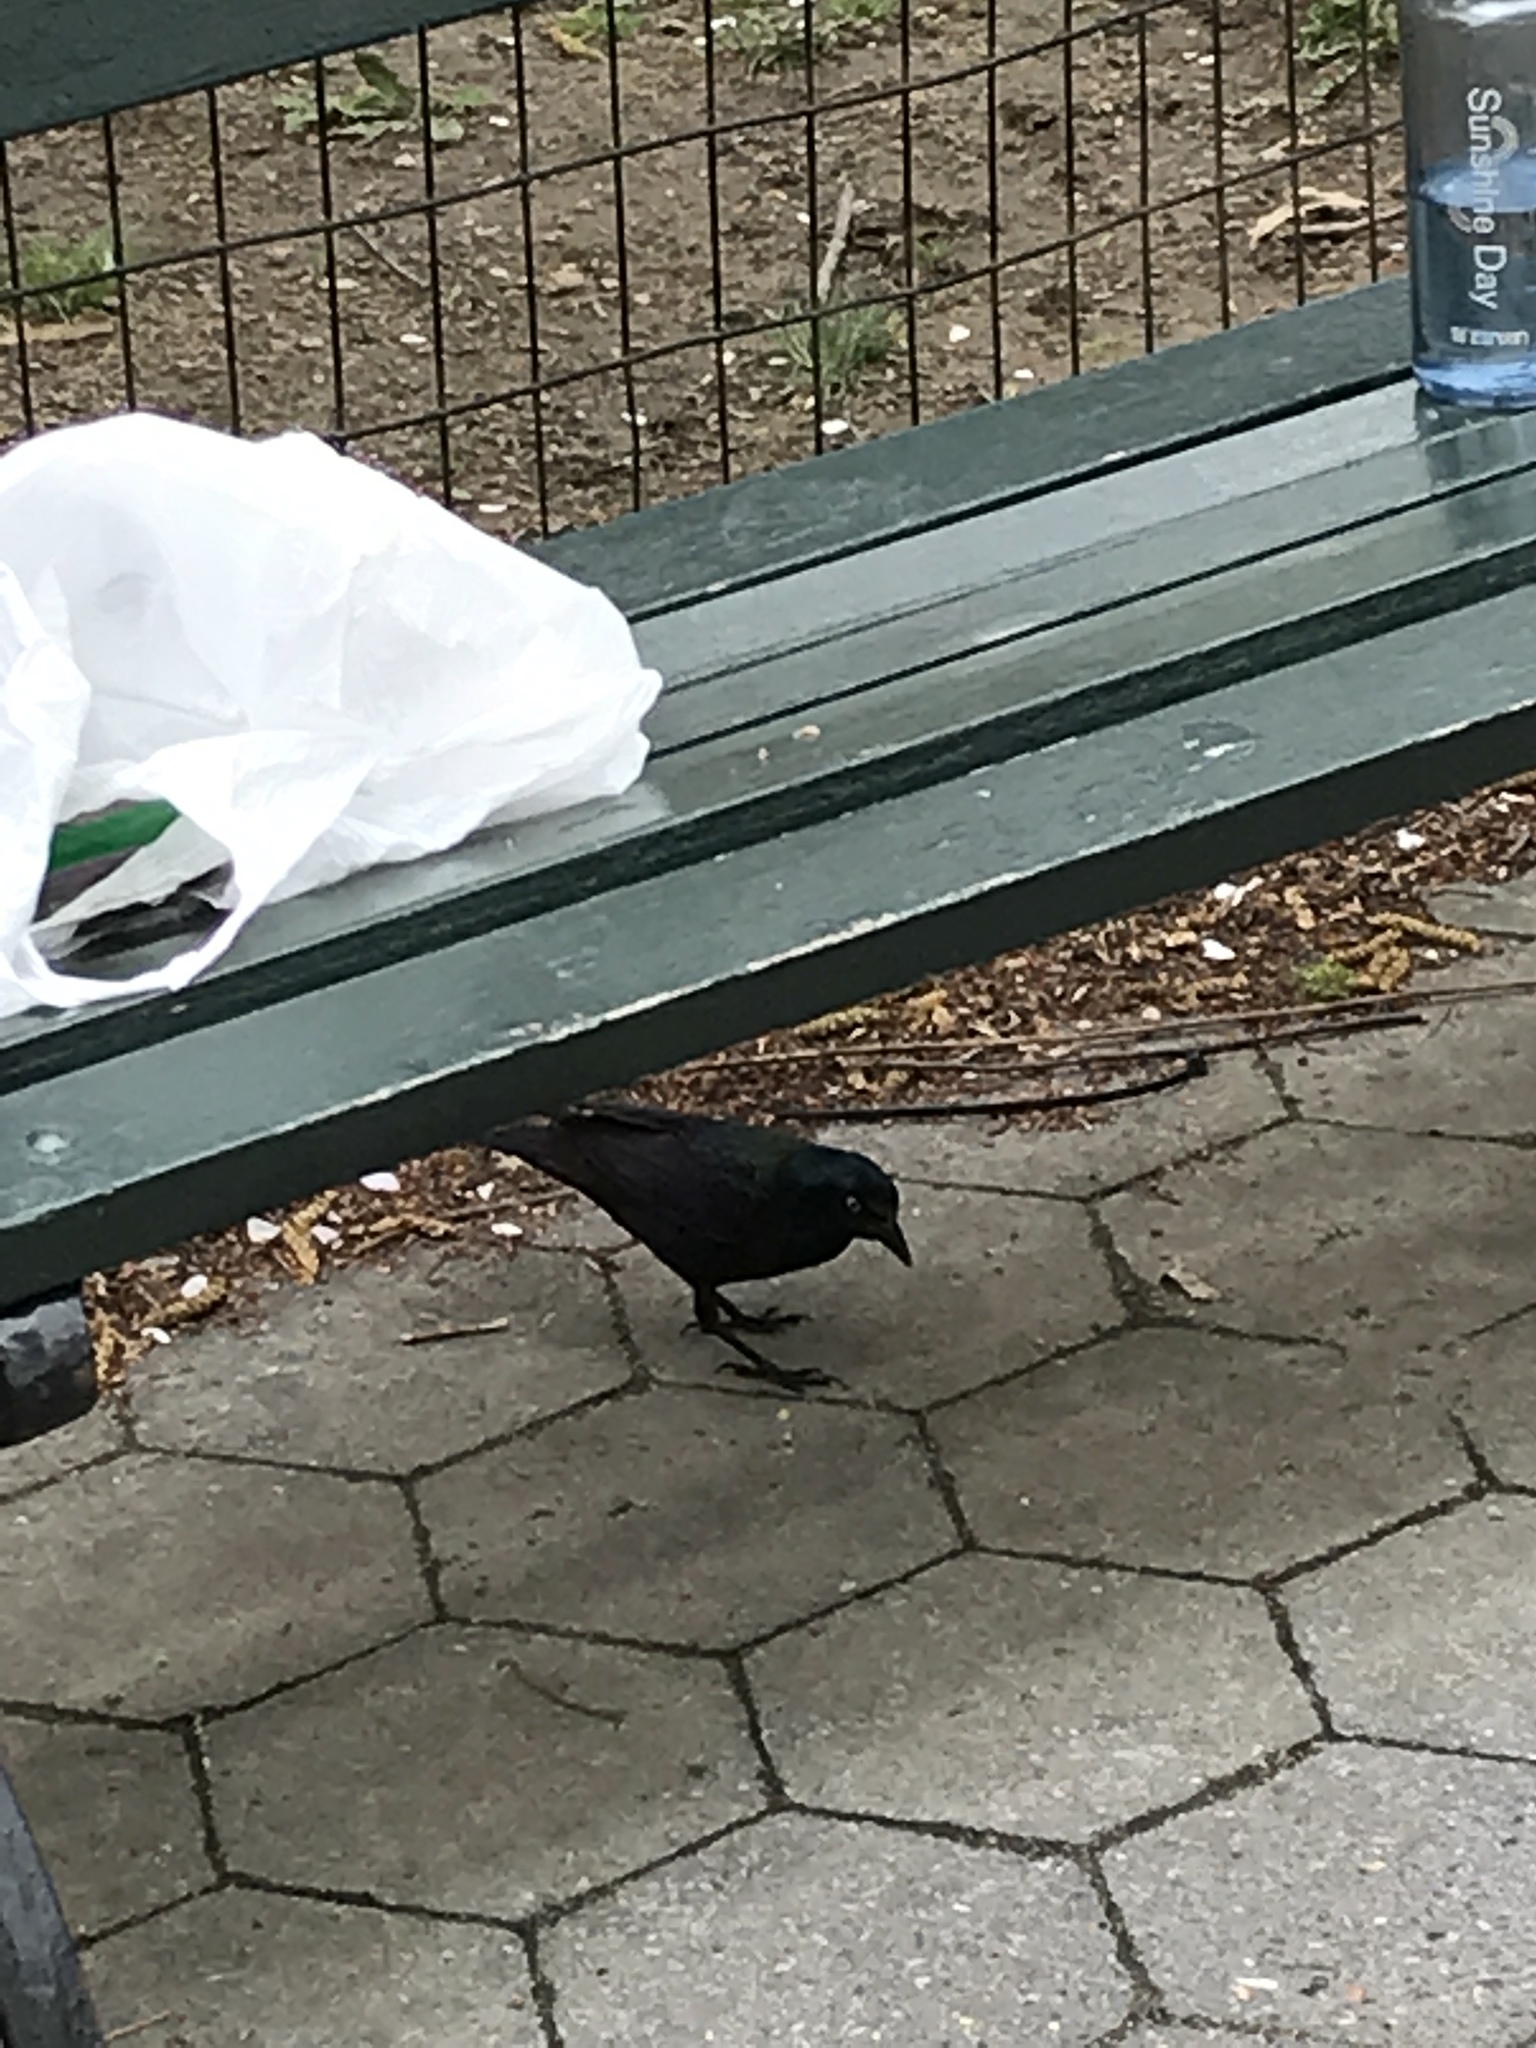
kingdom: Animalia
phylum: Chordata
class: Aves
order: Passeriformes
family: Icteridae
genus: Quiscalus
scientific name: Quiscalus quiscula
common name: Common grackle
